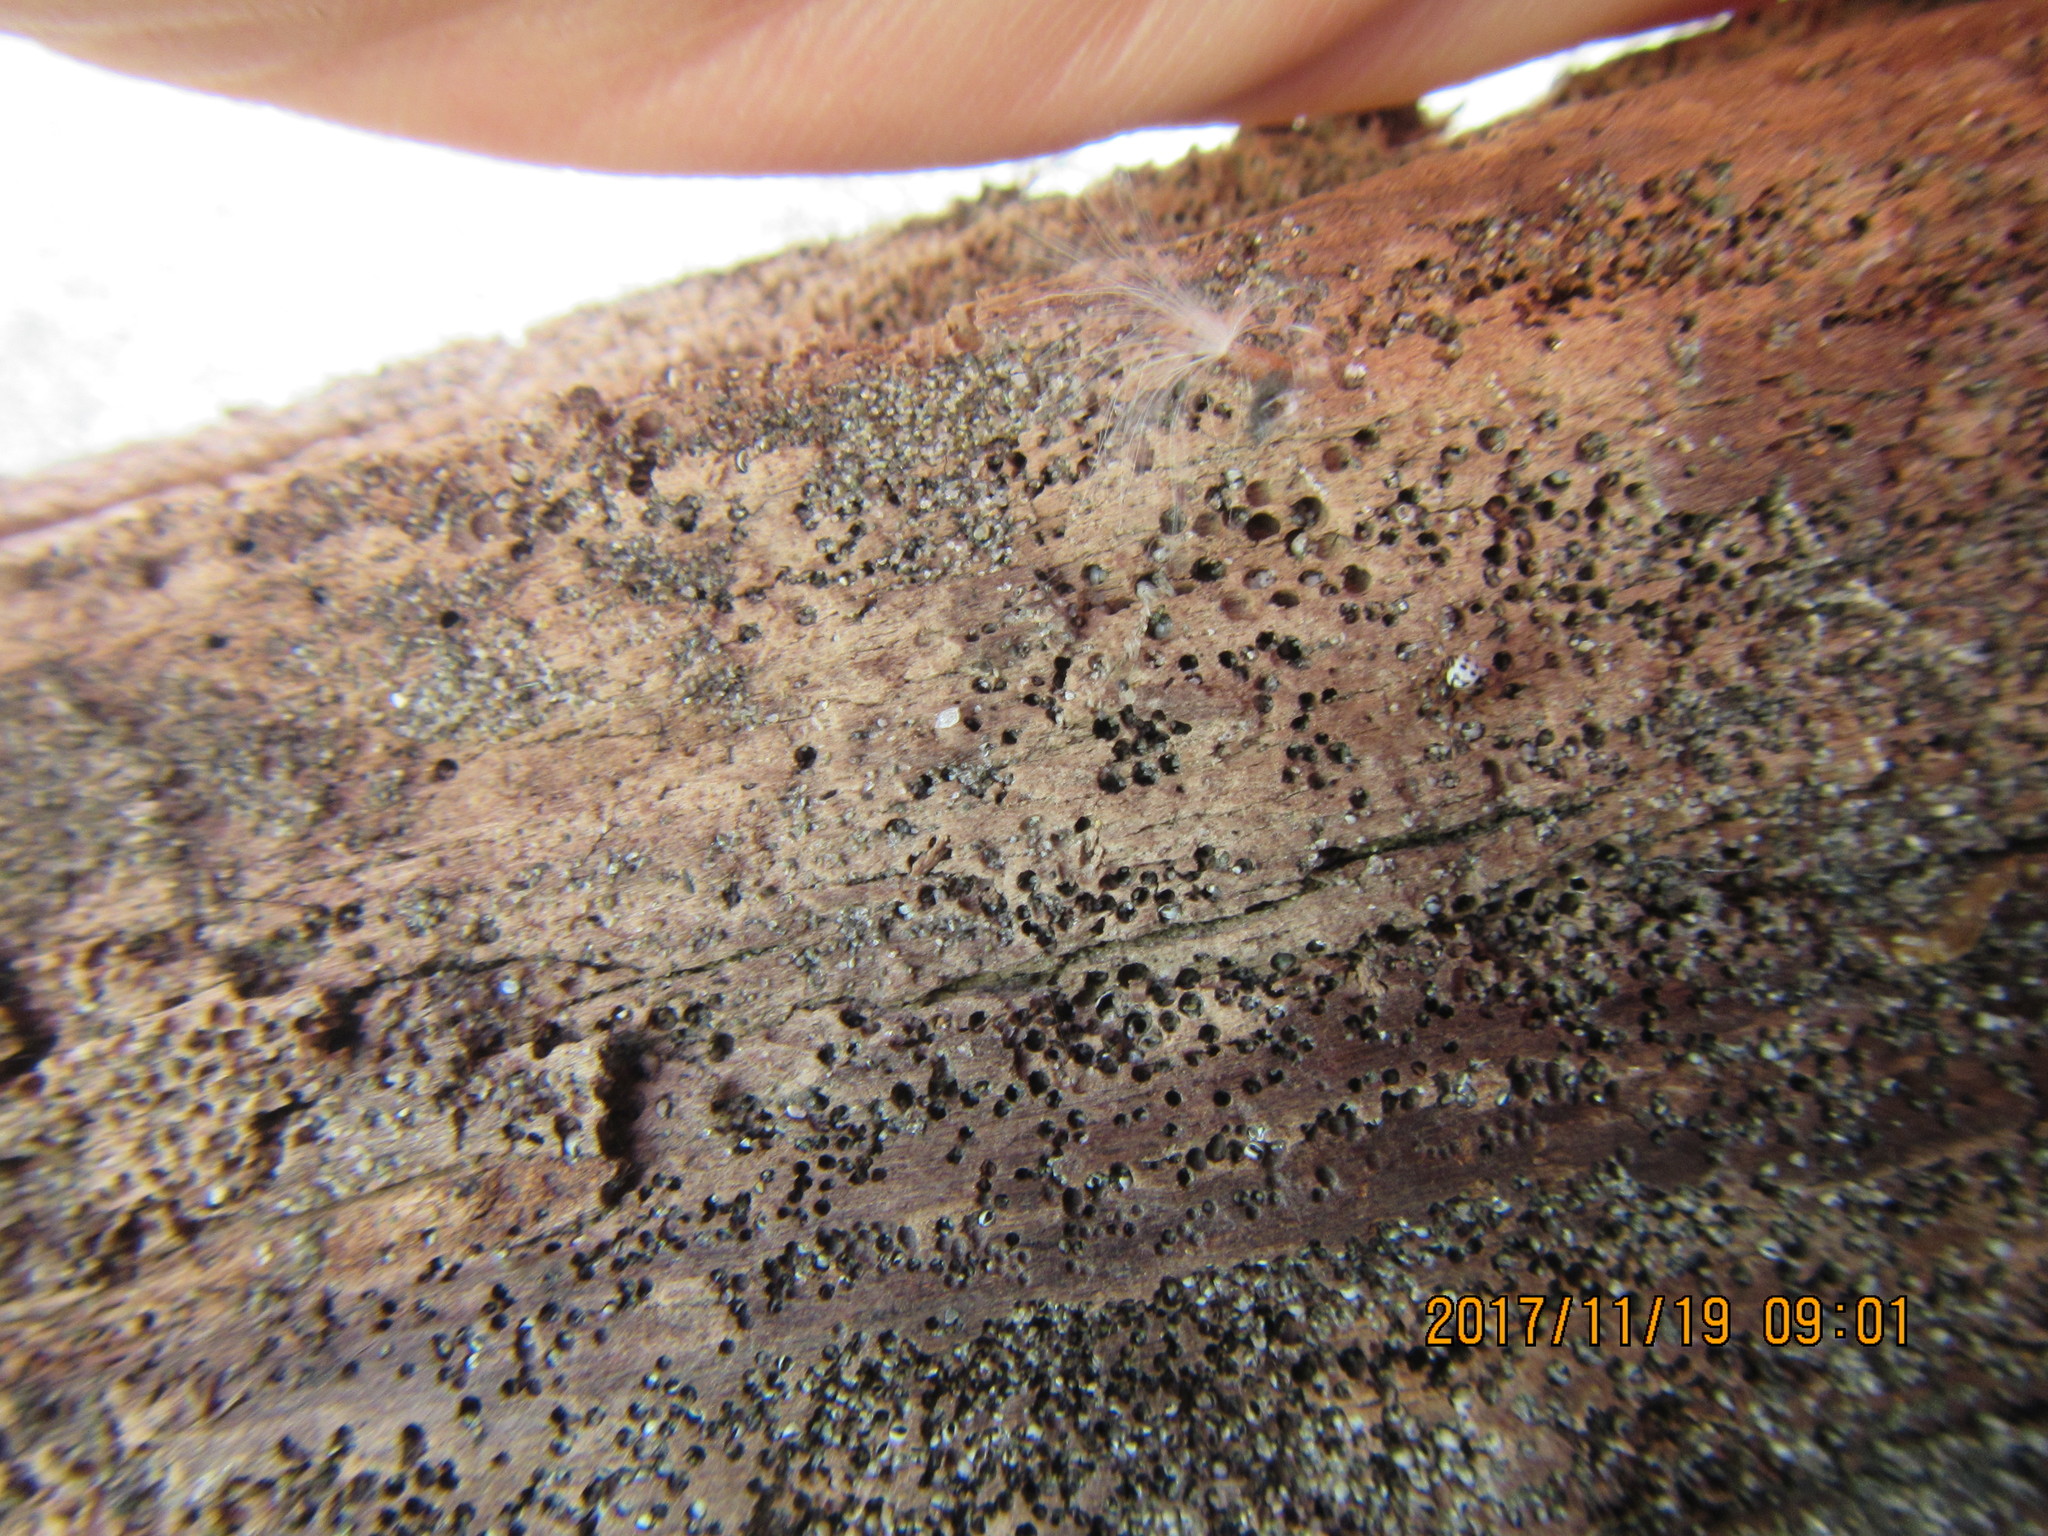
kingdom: Animalia
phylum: Arthropoda
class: Arachnida
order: Araneae
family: Theridiidae
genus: Latrodectus
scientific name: Latrodectus katipo
